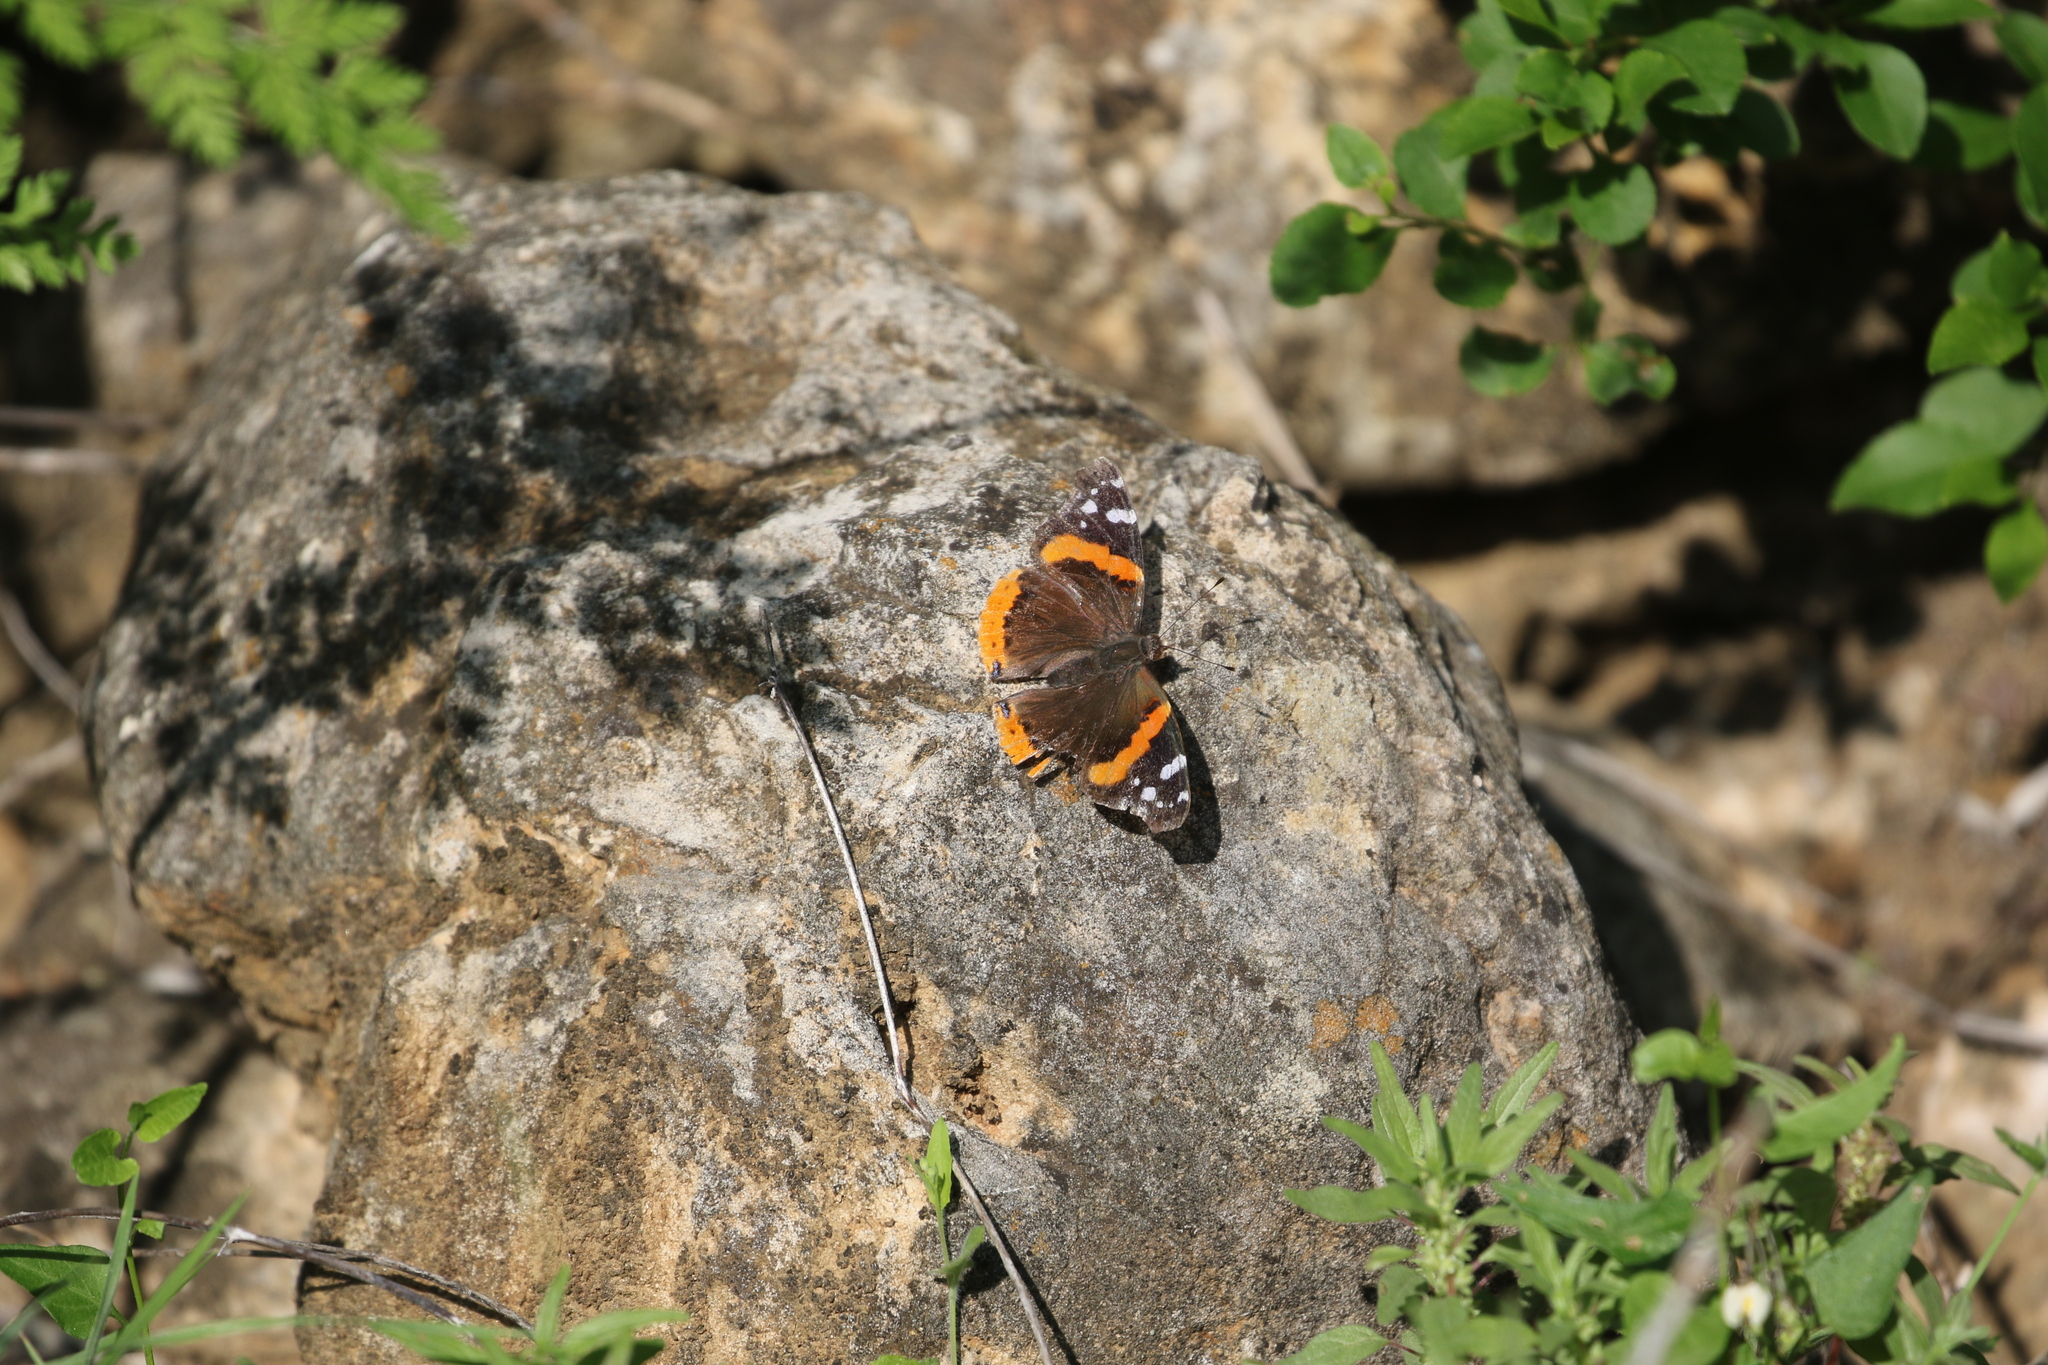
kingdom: Animalia
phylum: Arthropoda
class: Insecta
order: Lepidoptera
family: Nymphalidae
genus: Vanessa
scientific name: Vanessa atalanta
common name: Red admiral
